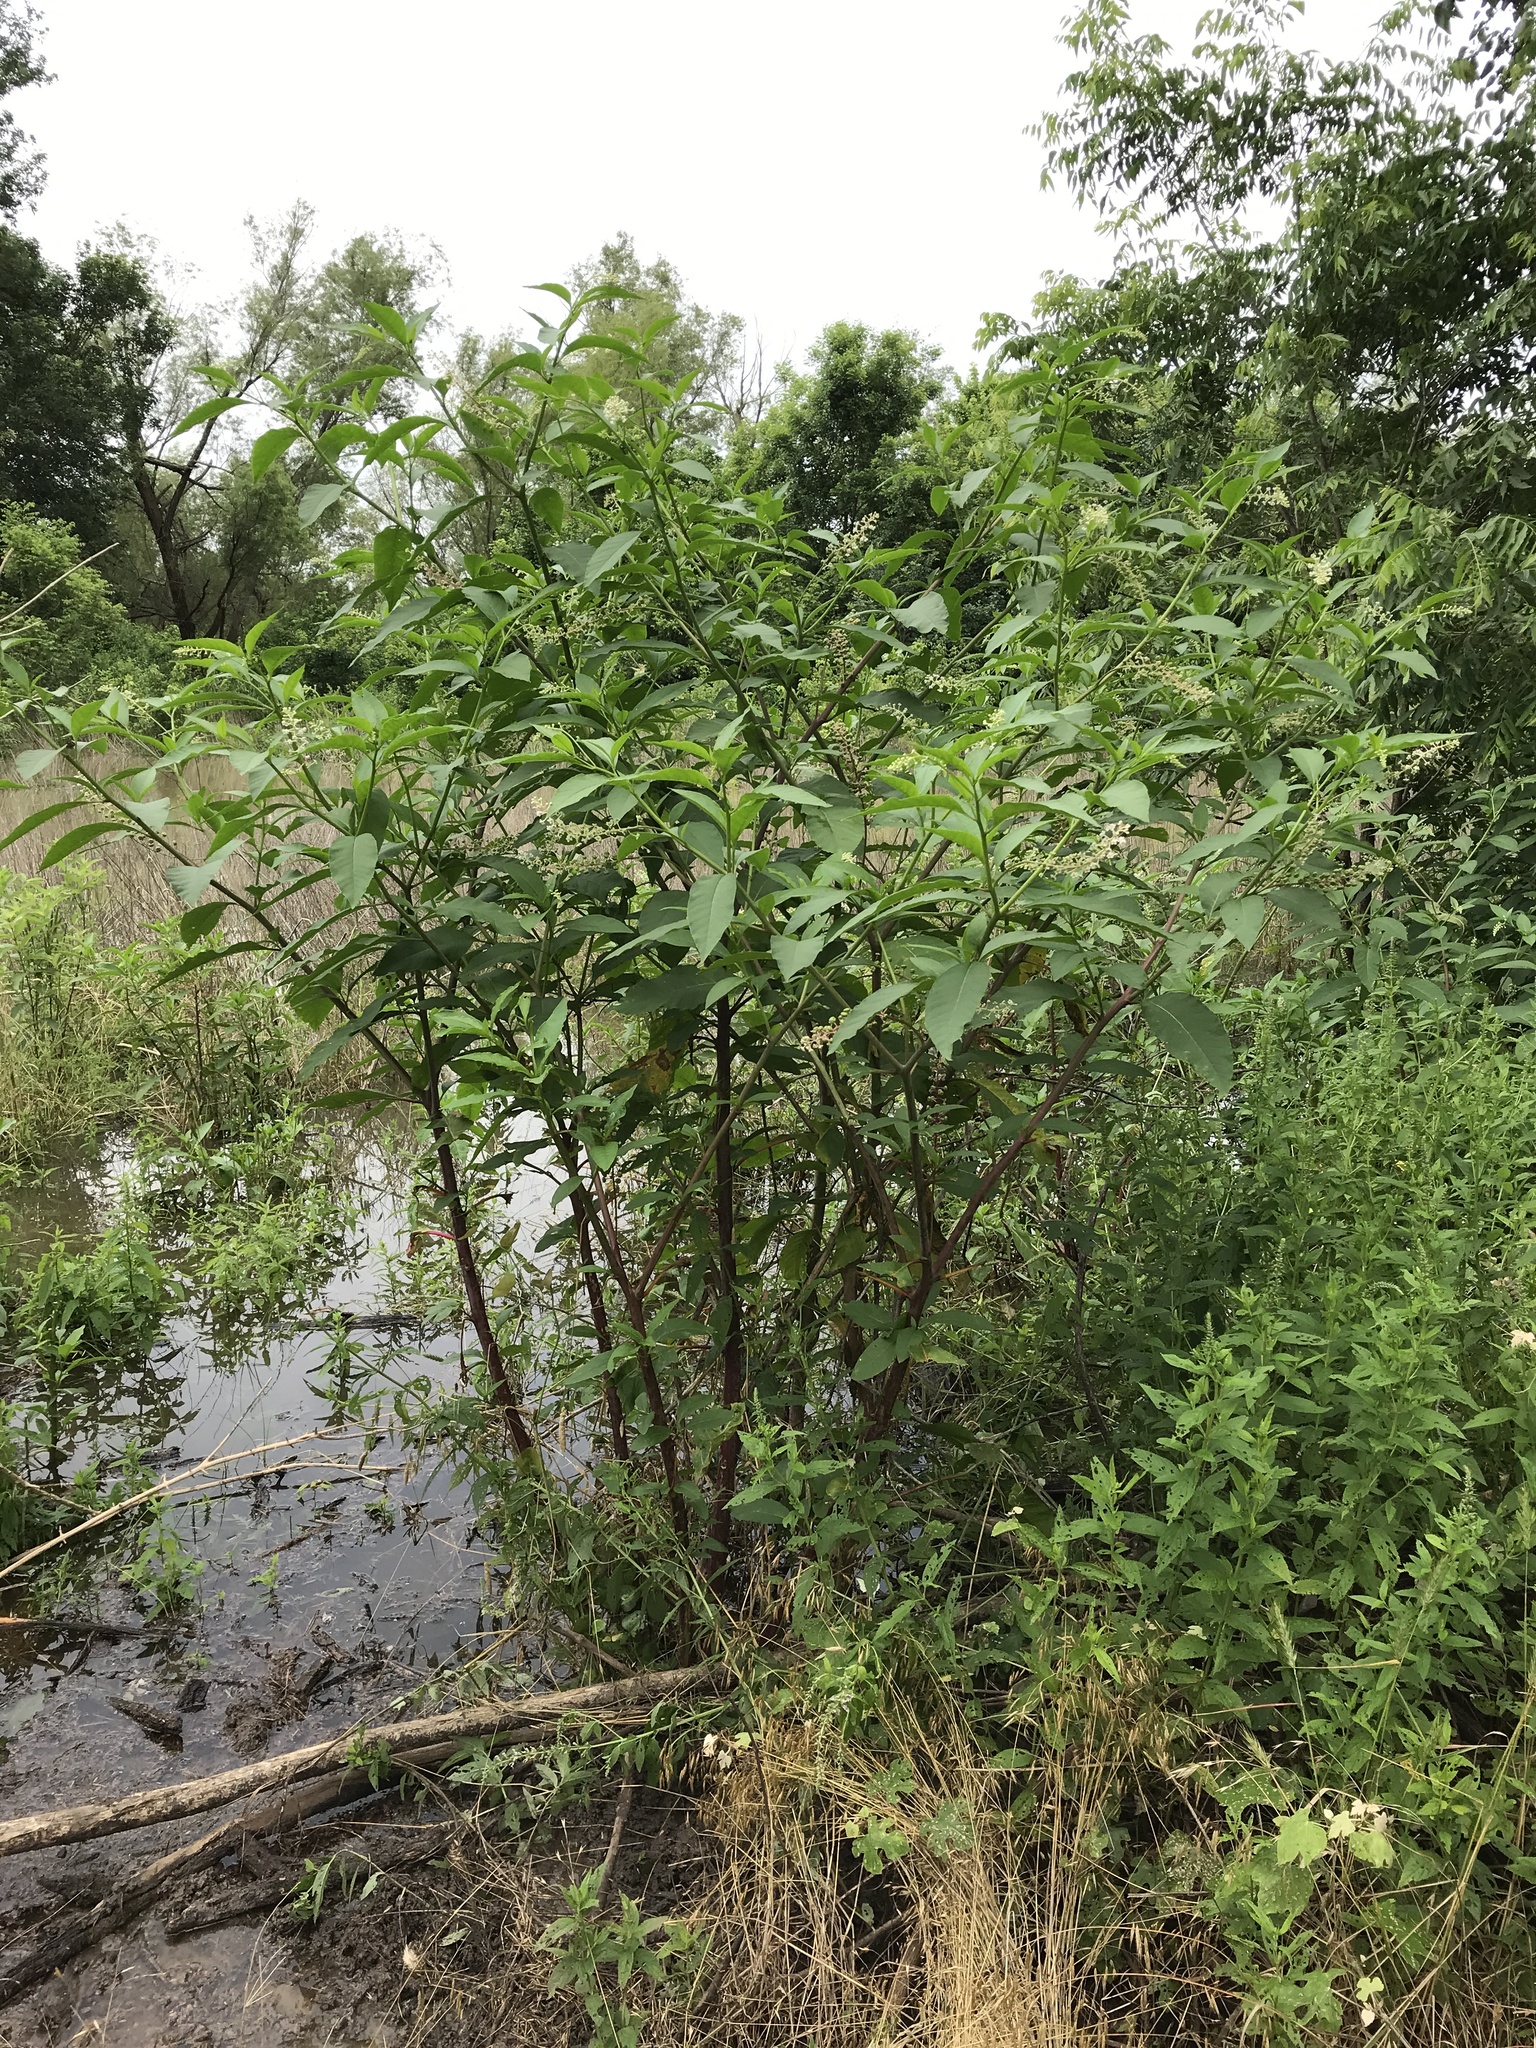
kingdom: Plantae
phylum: Tracheophyta
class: Magnoliopsida
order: Caryophyllales
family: Phytolaccaceae
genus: Phytolacca
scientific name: Phytolacca americana
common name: American pokeweed
